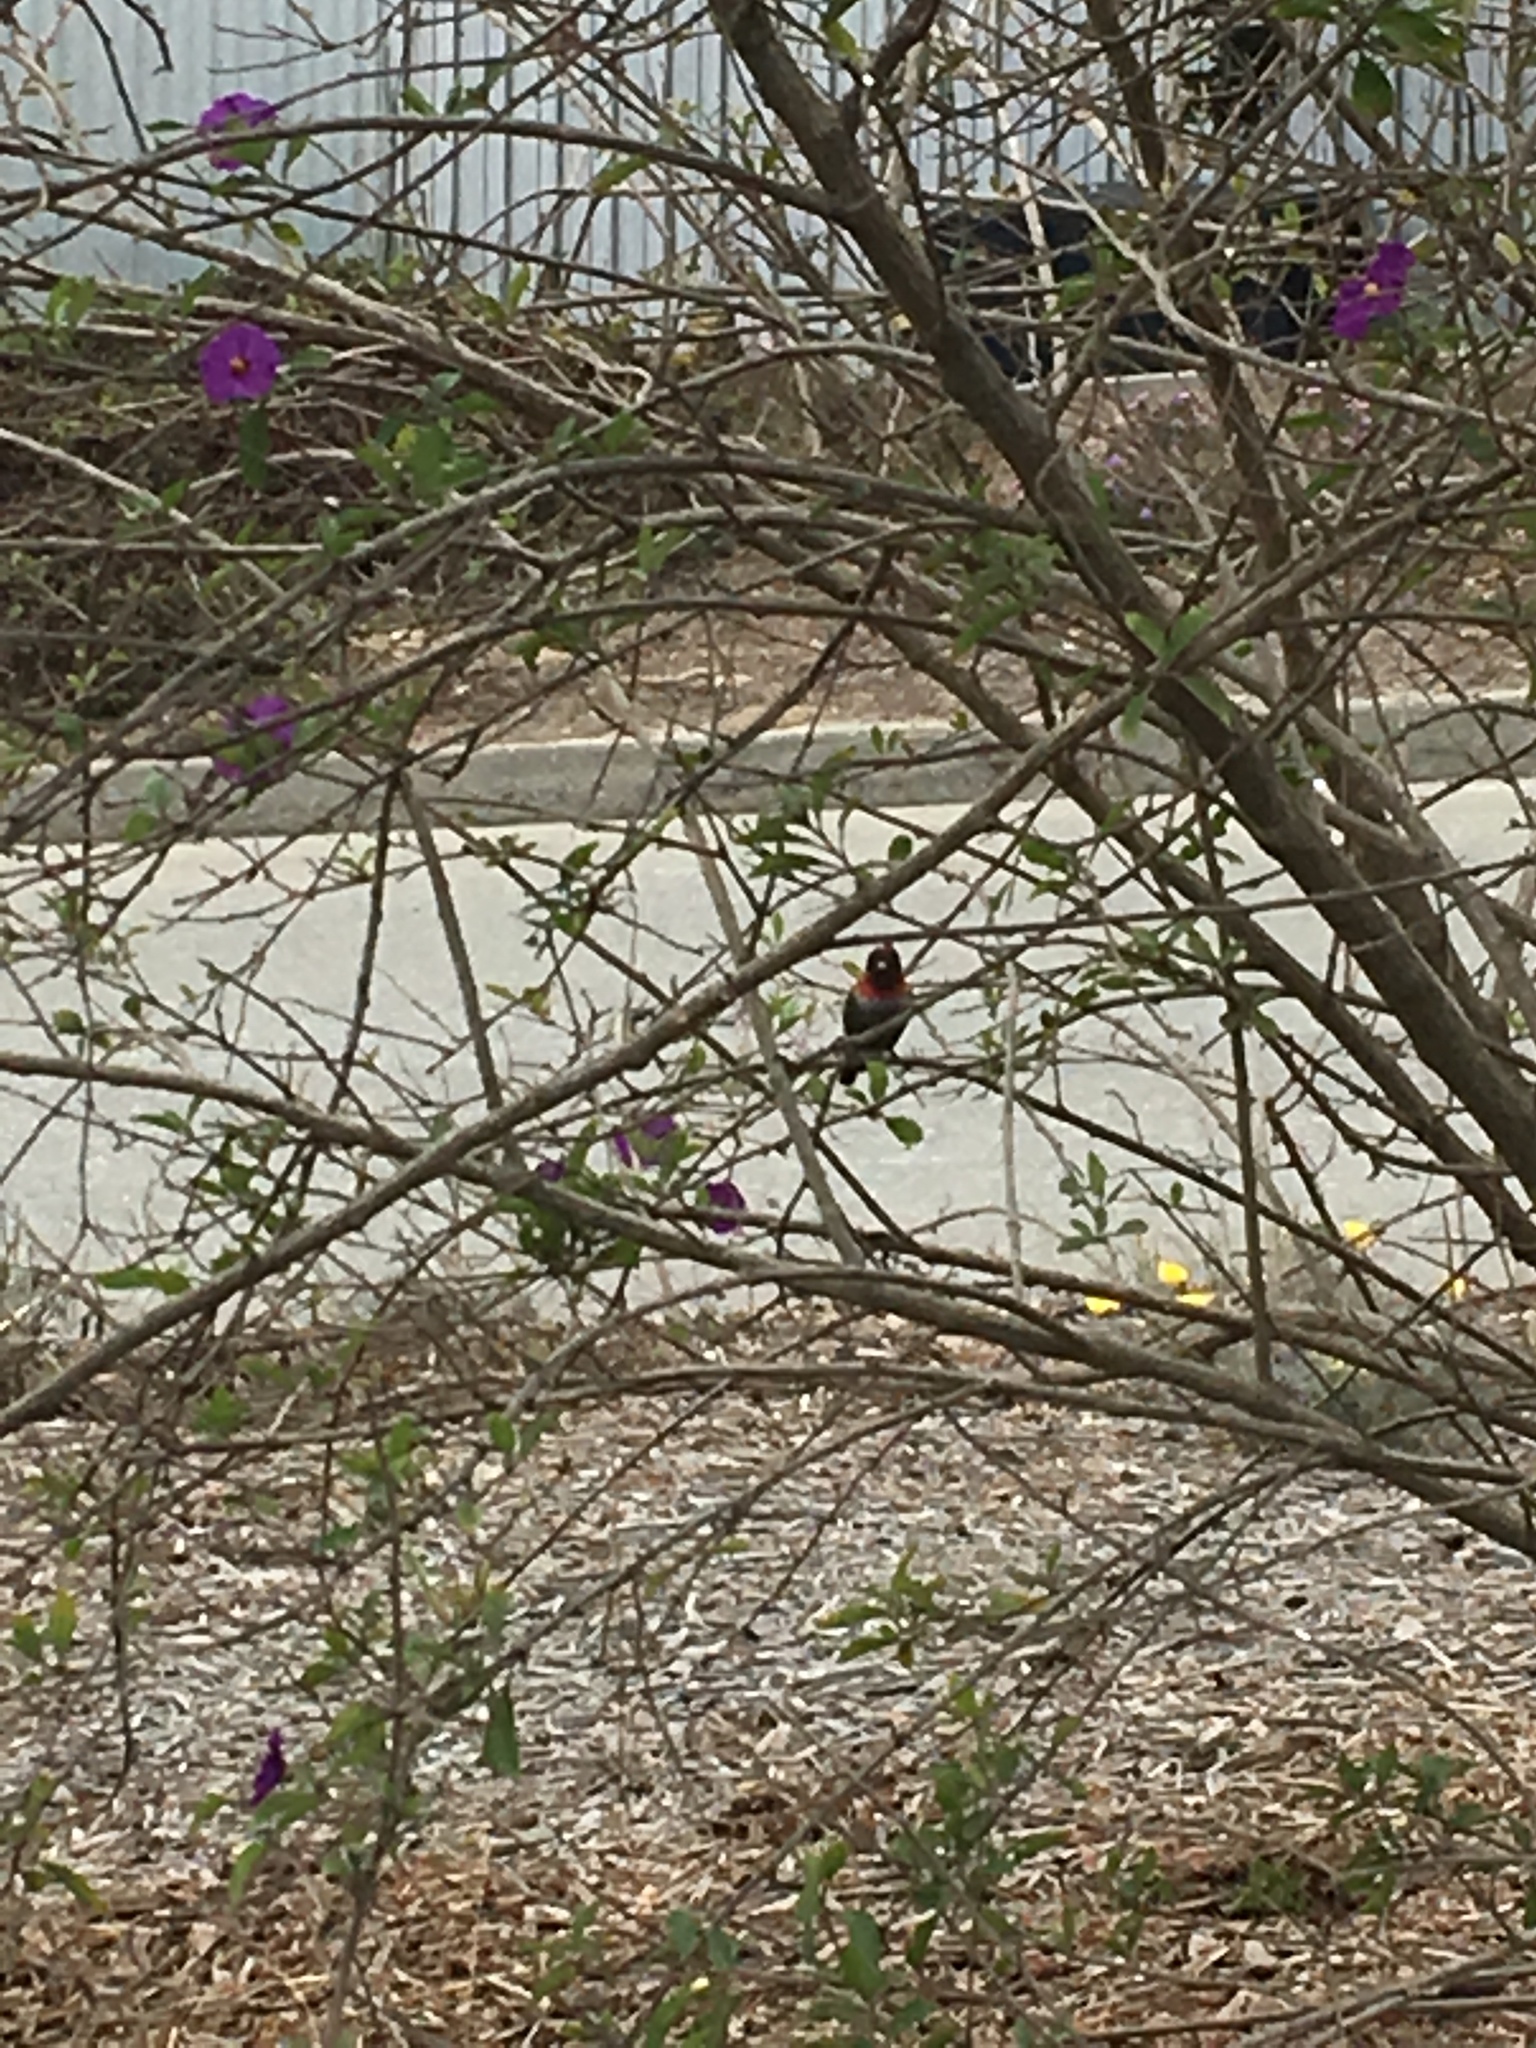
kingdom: Animalia
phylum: Chordata
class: Aves
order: Apodiformes
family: Trochilidae
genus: Calypte
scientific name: Calypte anna
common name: Anna's hummingbird
